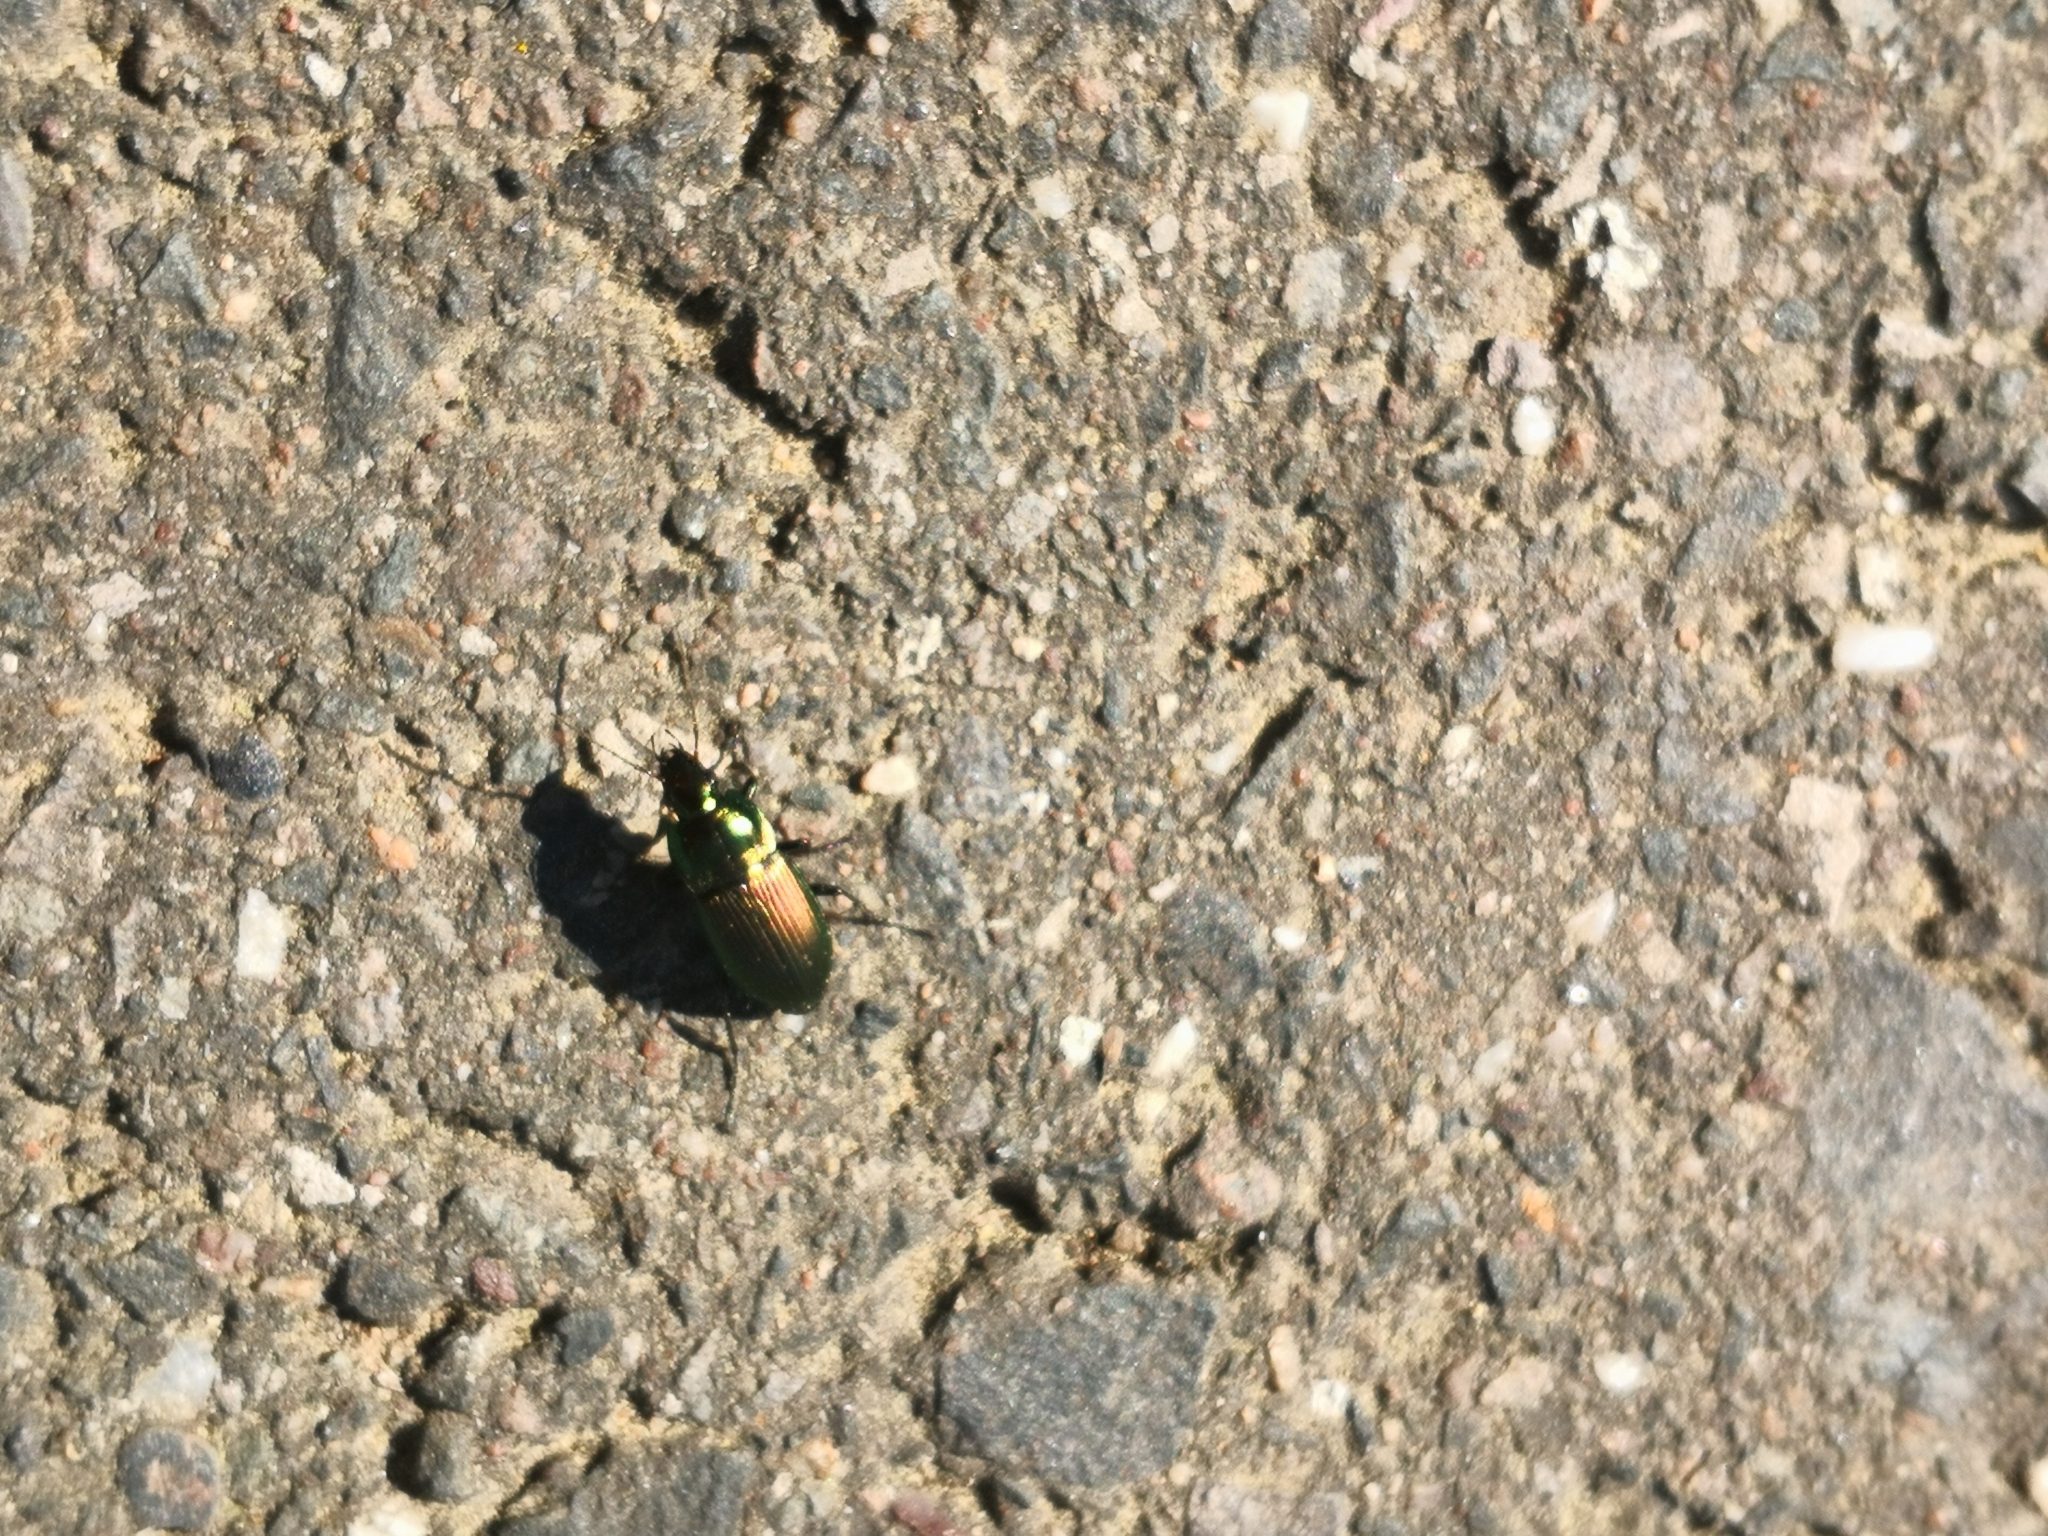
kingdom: Animalia
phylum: Arthropoda
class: Insecta
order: Coleoptera
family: Carabidae
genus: Poecilus
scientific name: Poecilus versicolor
